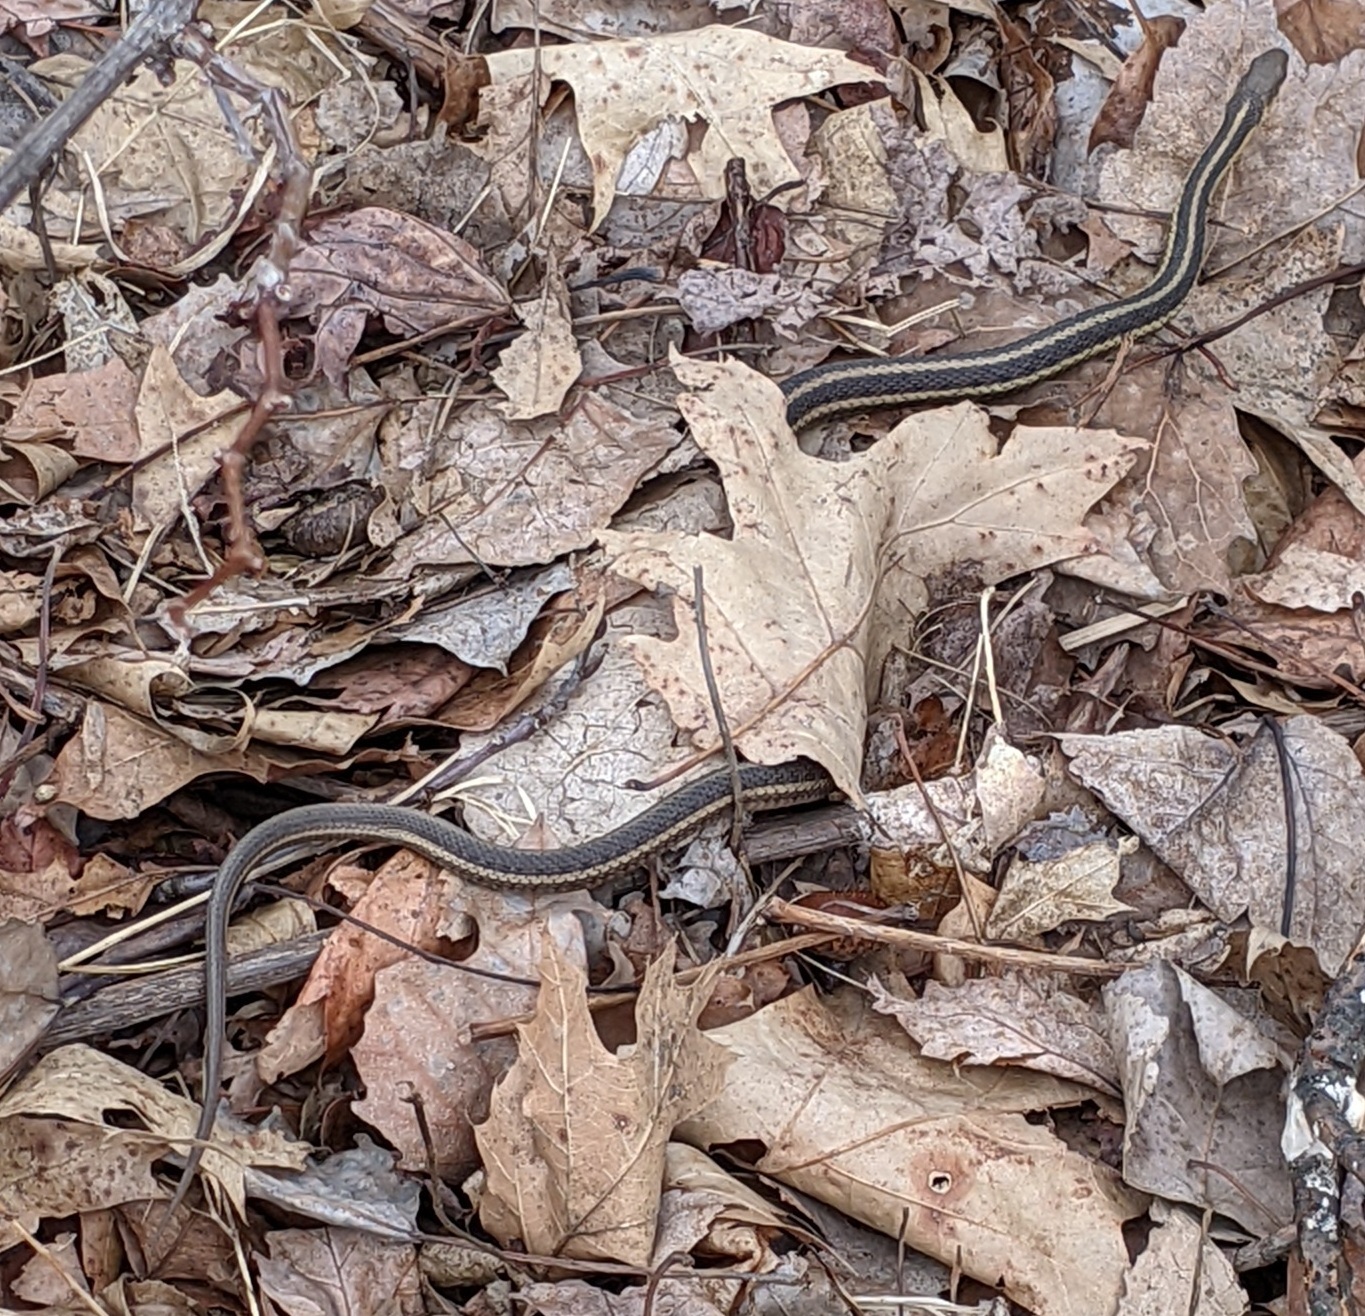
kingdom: Animalia
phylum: Chordata
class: Squamata
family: Colubridae
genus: Thamnophis
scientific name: Thamnophis sirtalis
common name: Common garter snake
